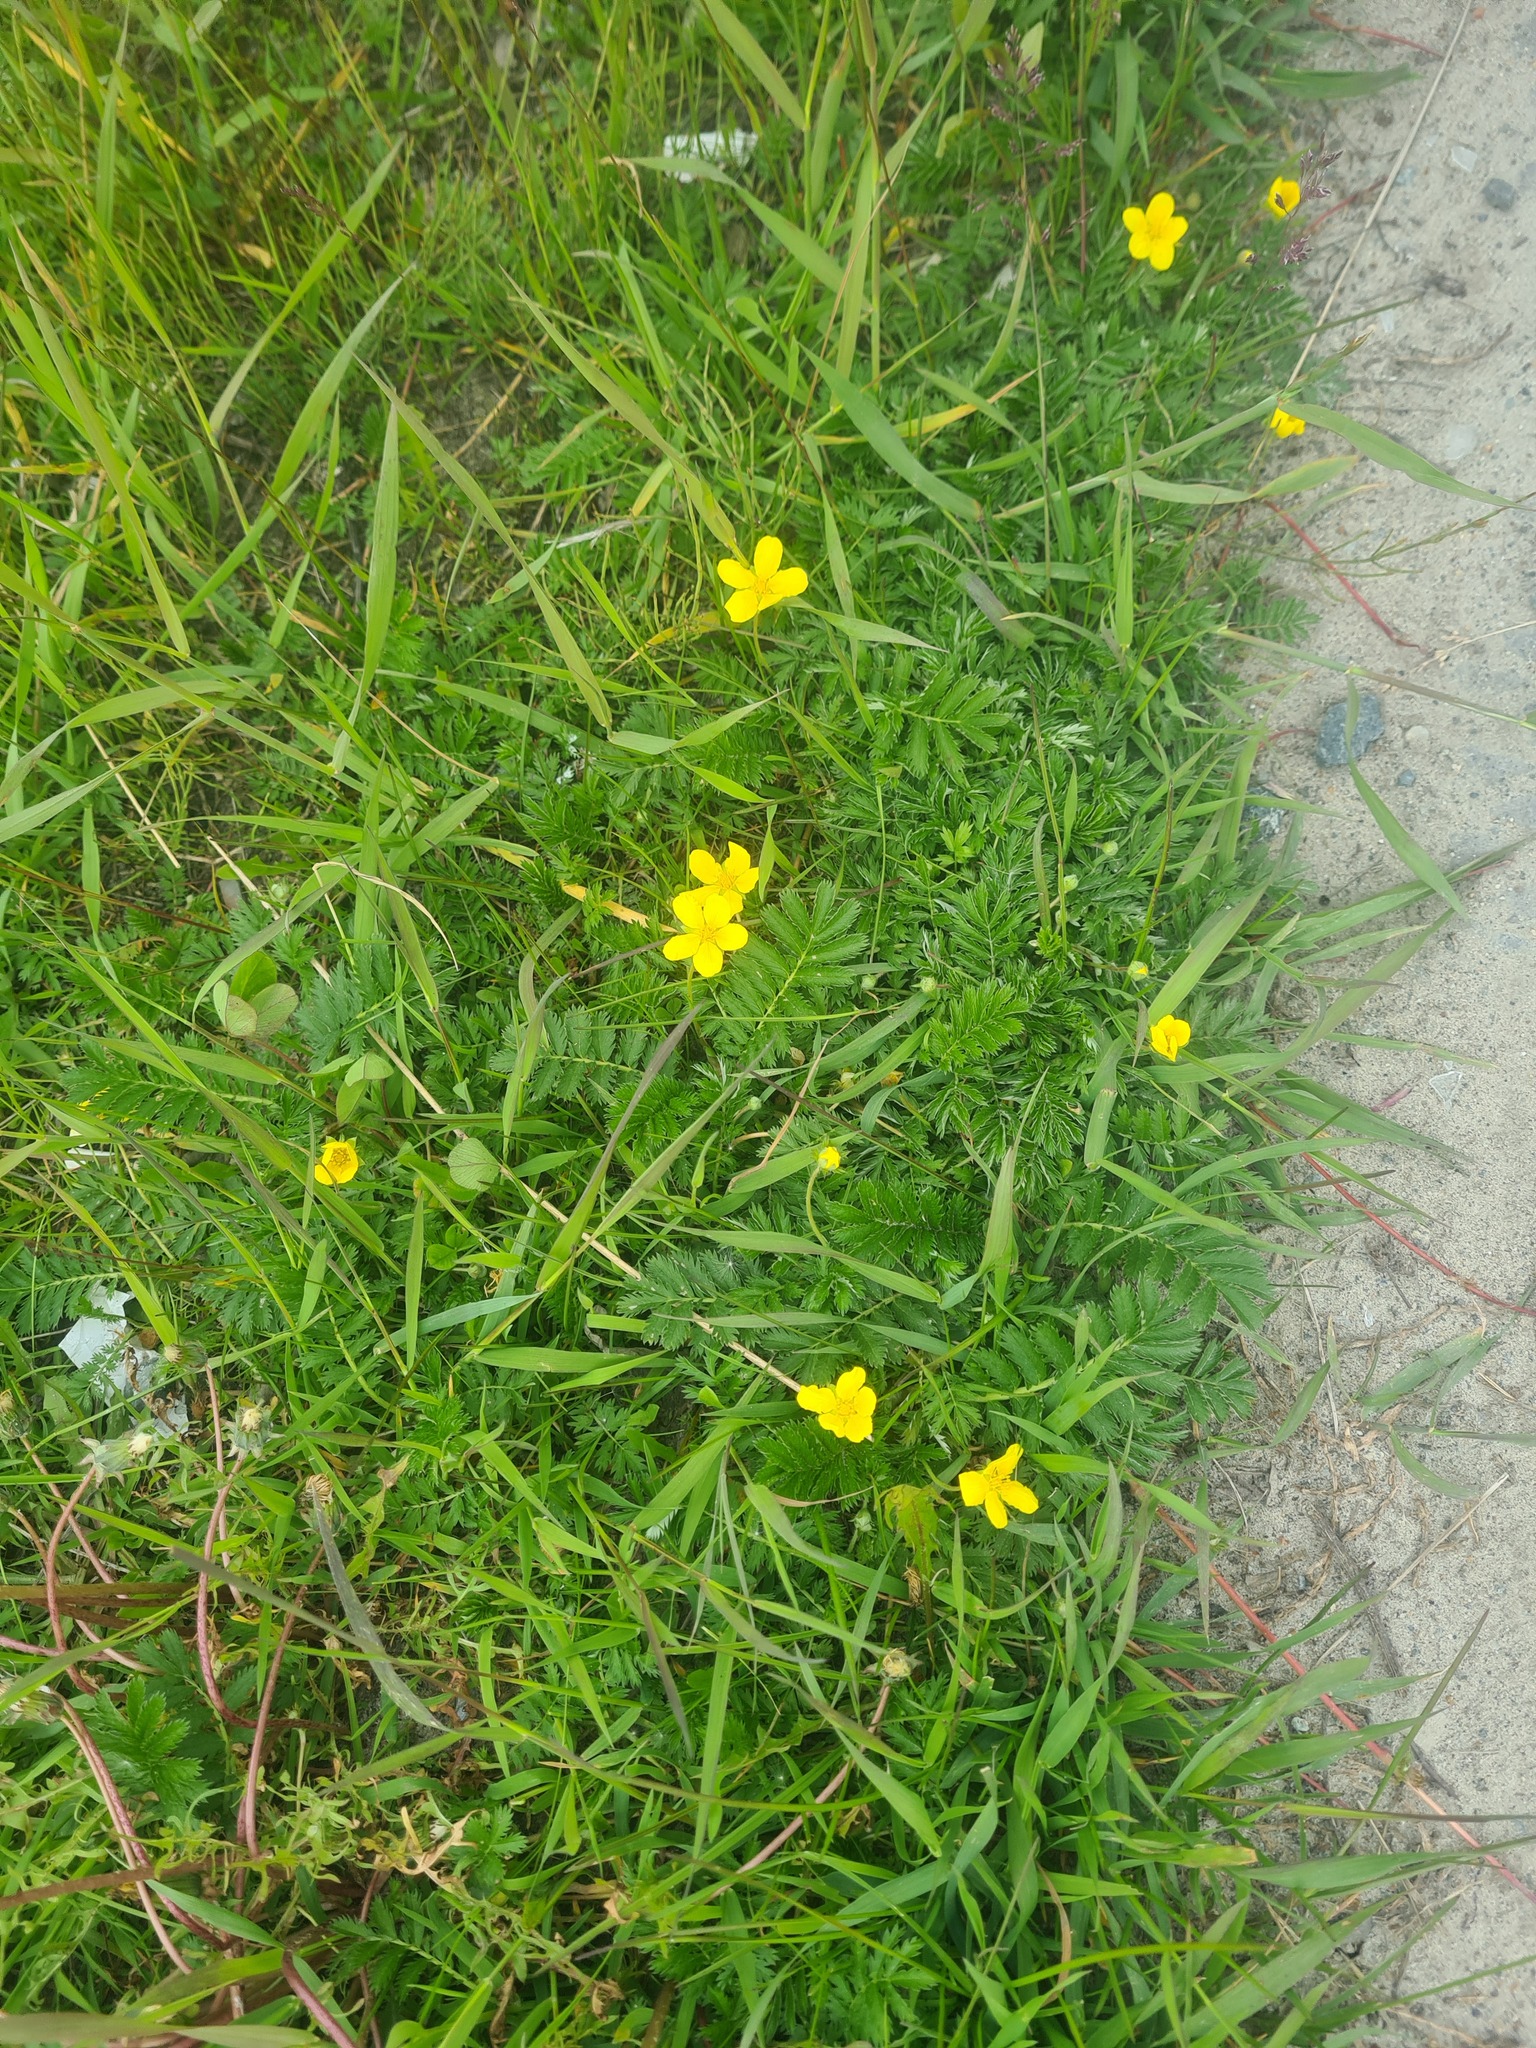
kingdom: Plantae
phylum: Tracheophyta
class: Magnoliopsida
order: Rosales
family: Rosaceae
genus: Argentina
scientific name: Argentina anserina
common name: Common silverweed
